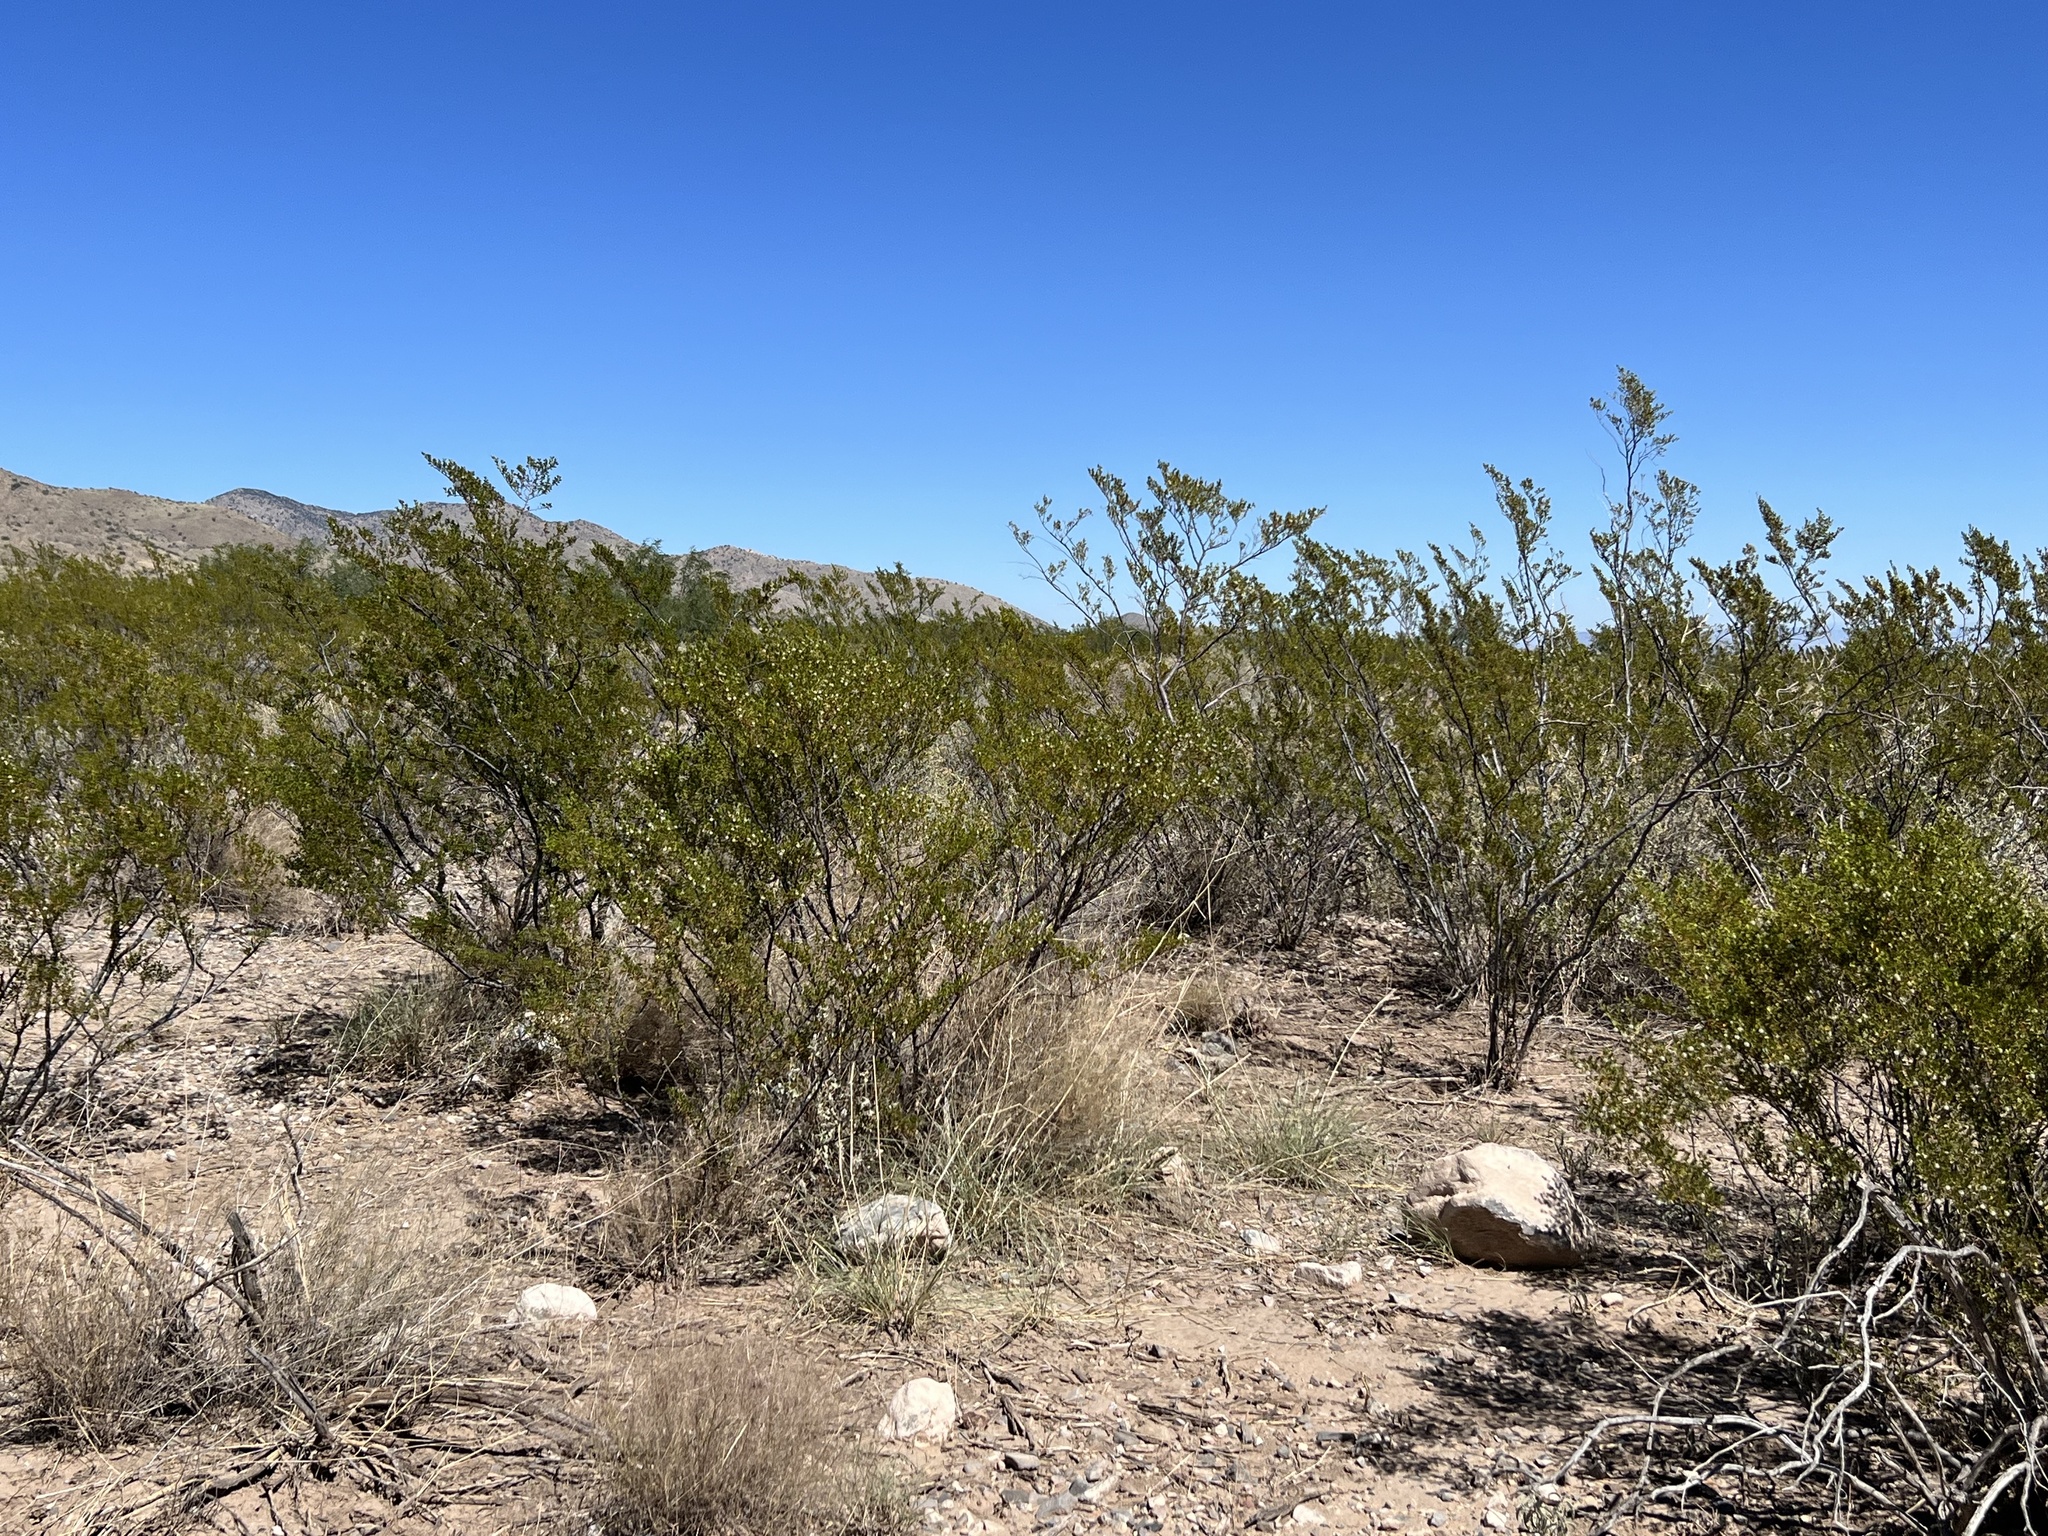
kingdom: Plantae
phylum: Tracheophyta
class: Magnoliopsida
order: Zygophyllales
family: Zygophyllaceae
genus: Larrea
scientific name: Larrea tridentata
